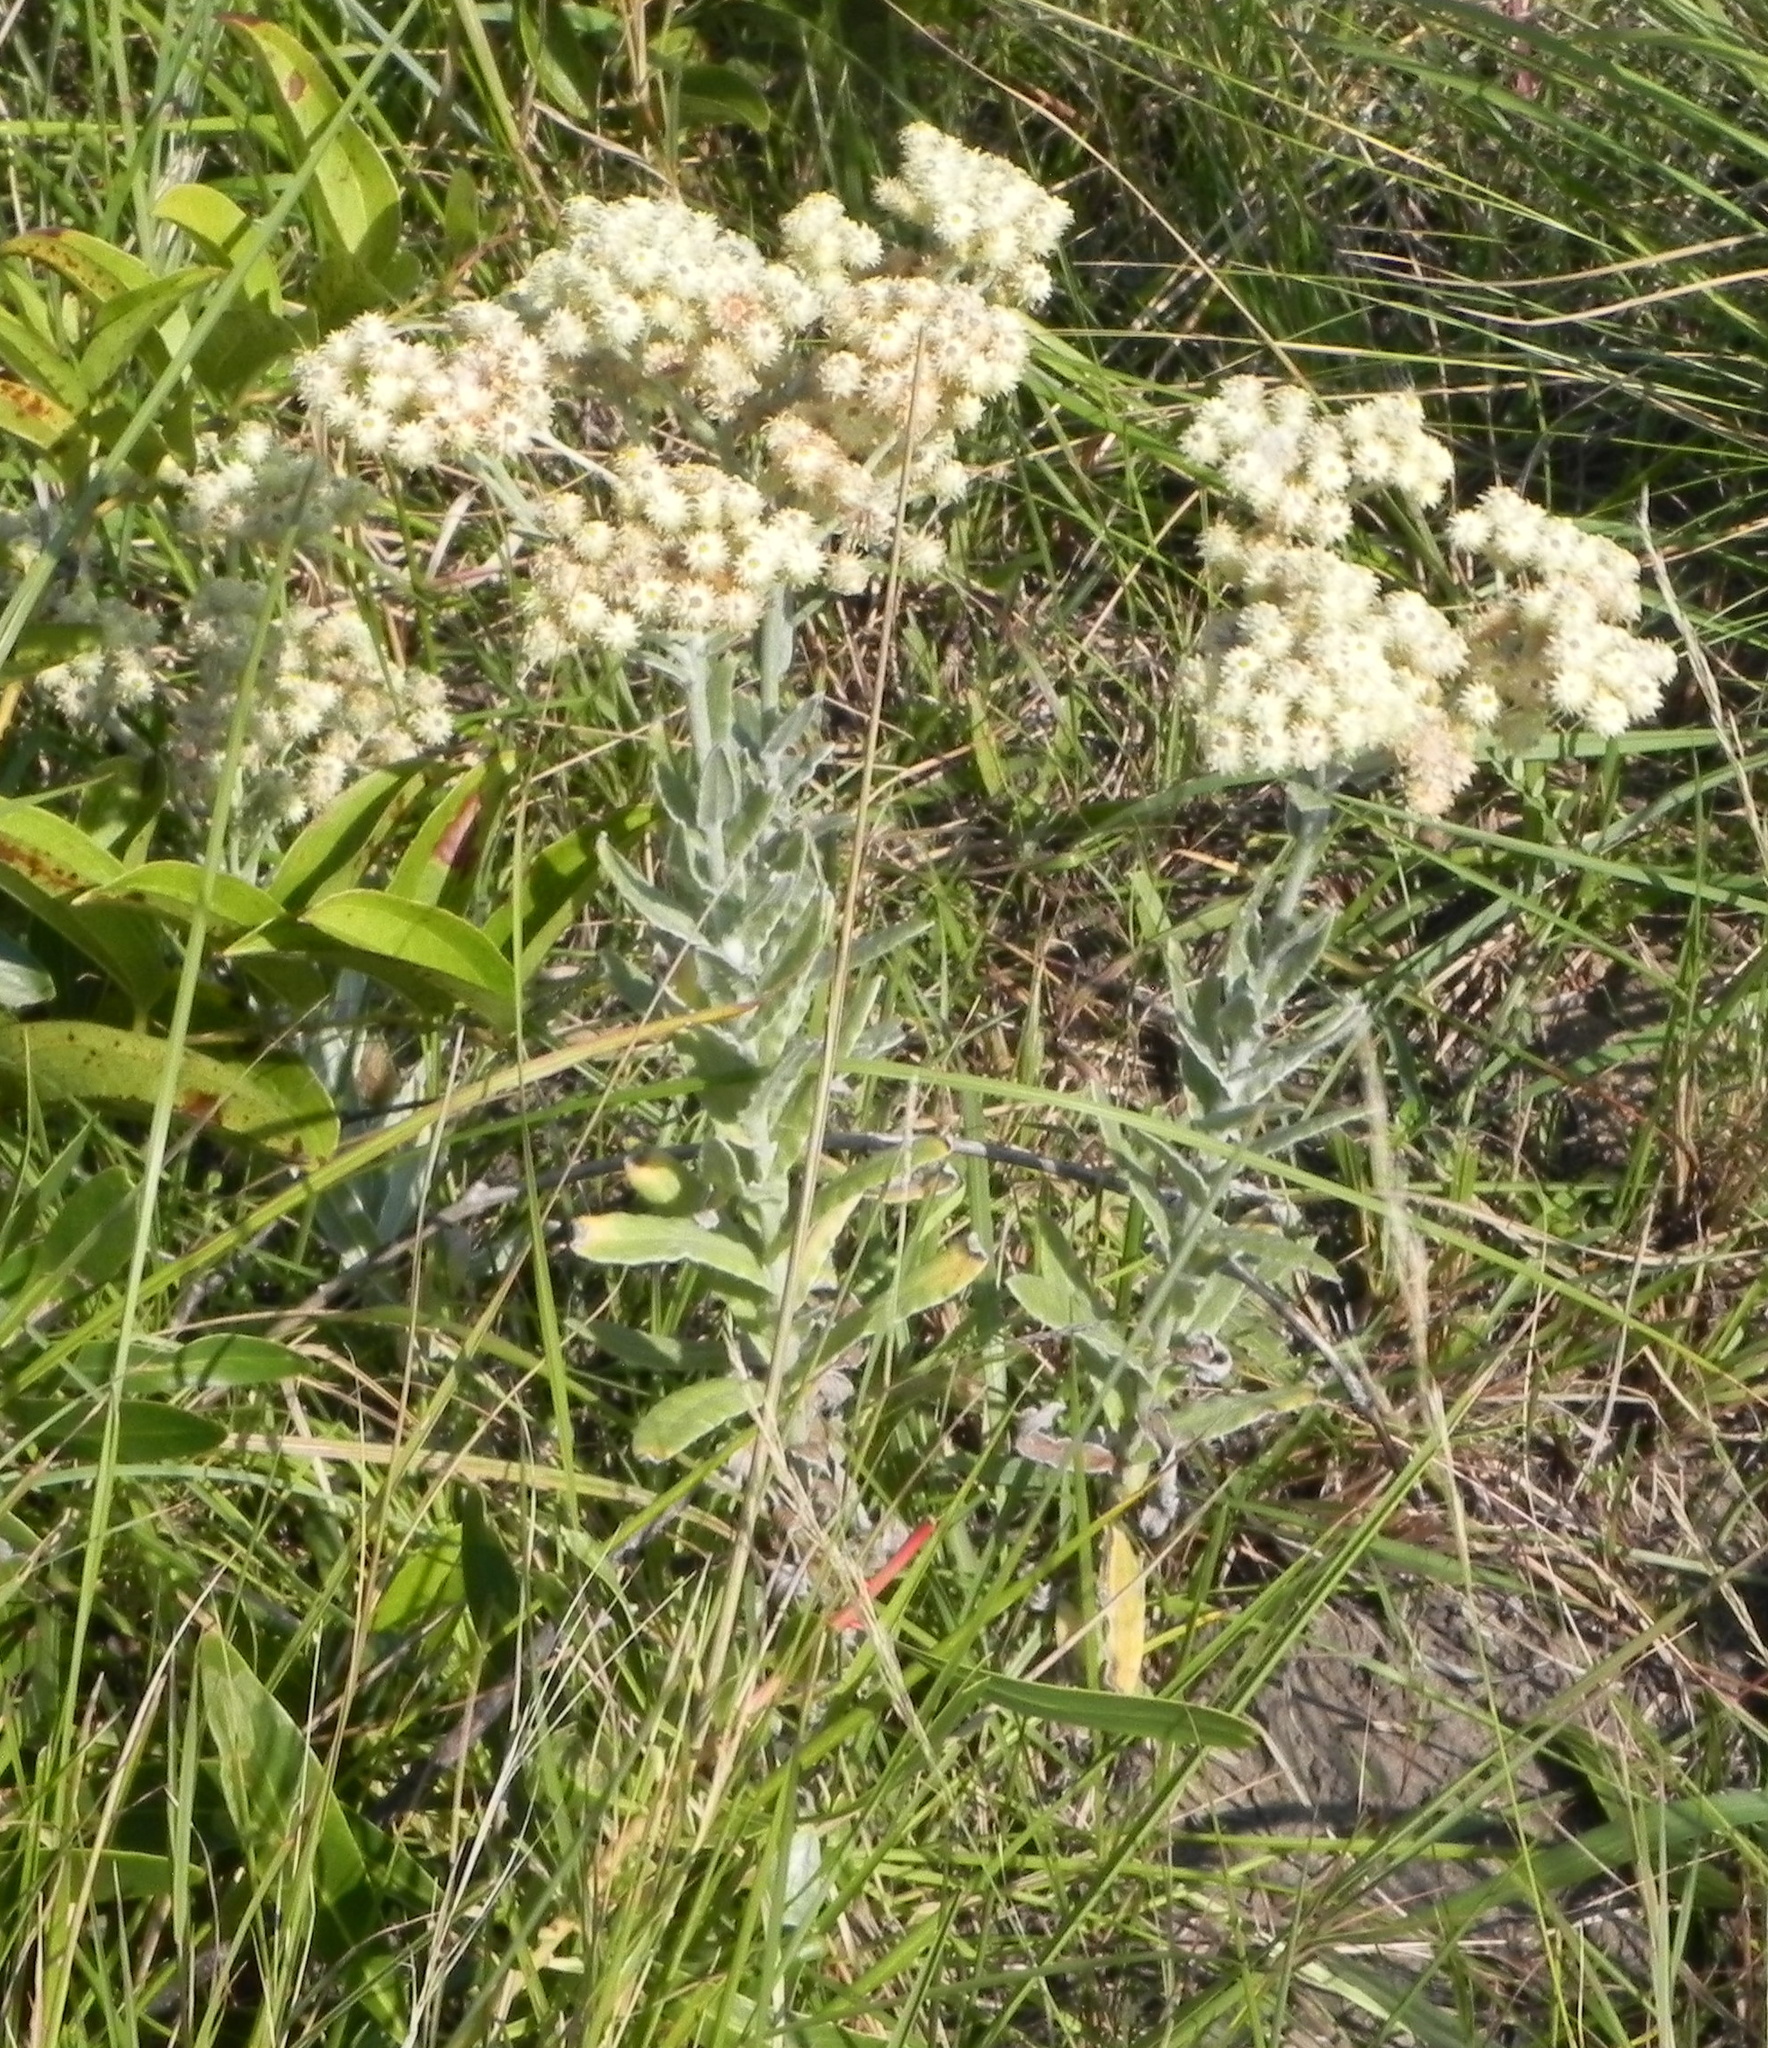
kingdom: Plantae
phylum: Tracheophyta
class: Magnoliopsida
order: Asterales
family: Asteraceae
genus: Helichrysum
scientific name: Helichrysum rugulosum
